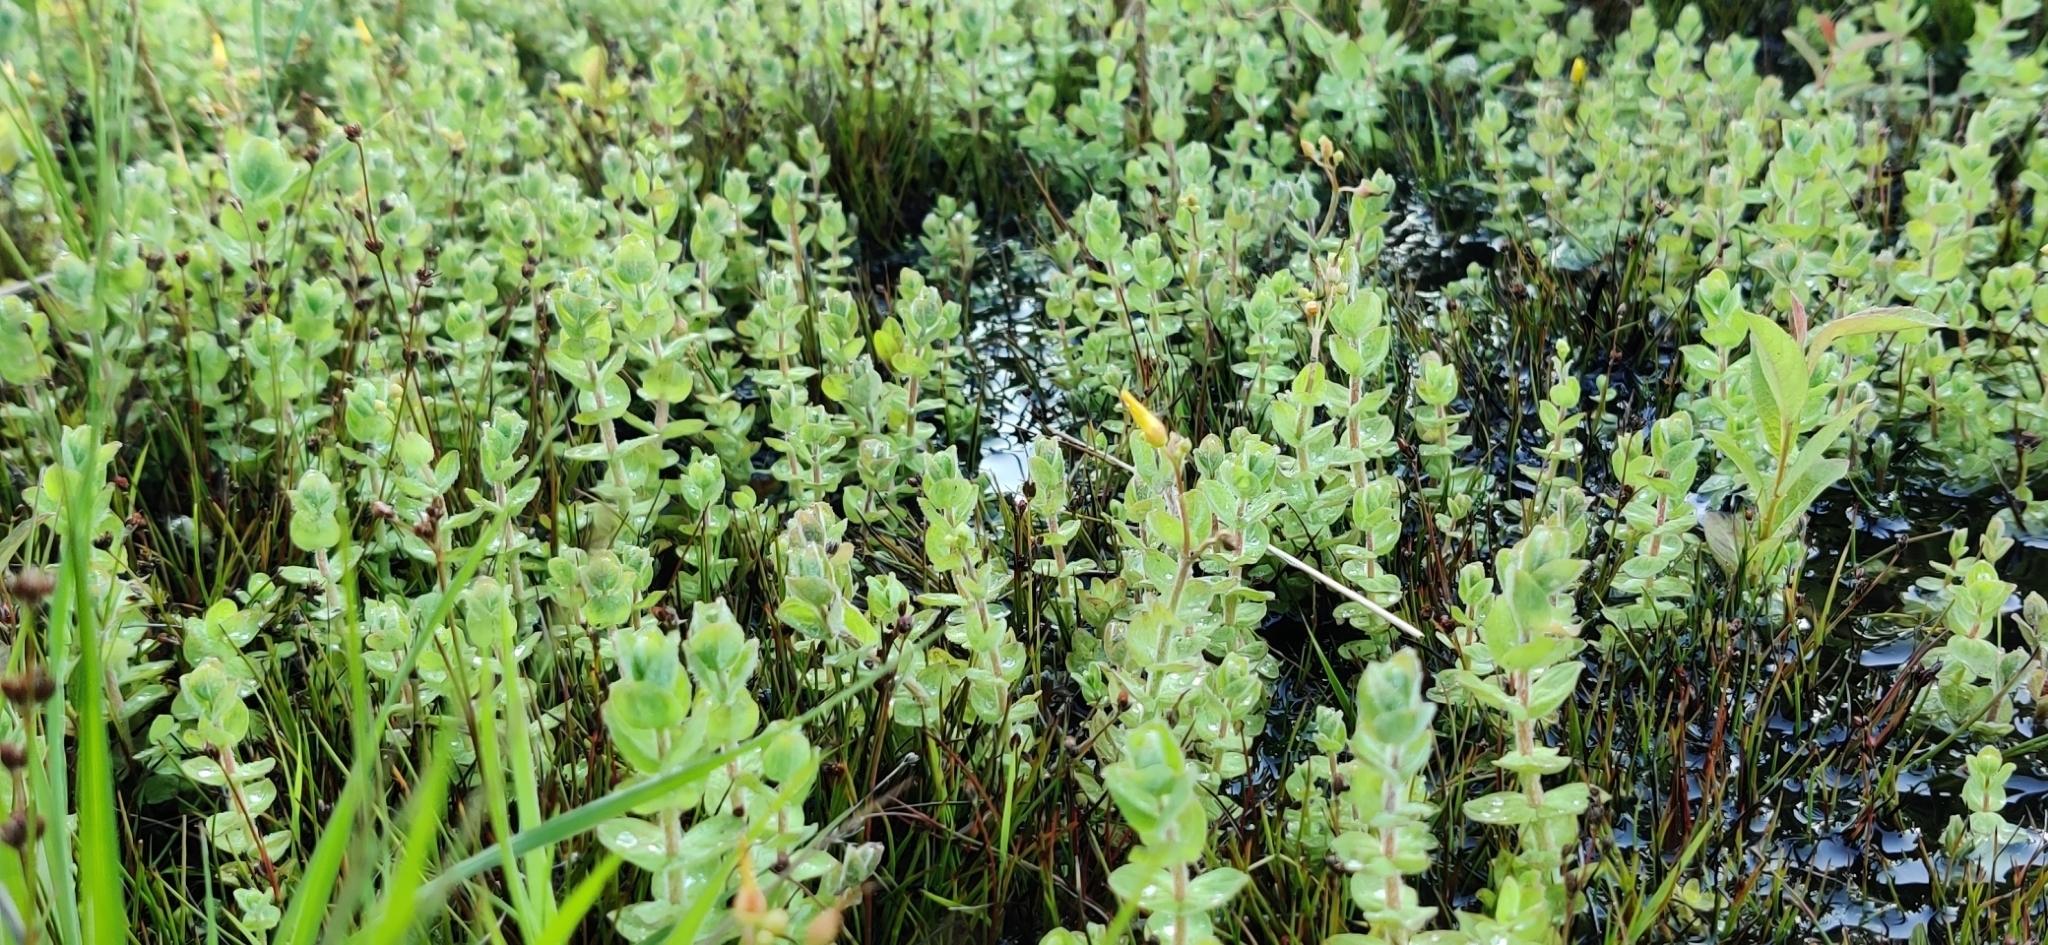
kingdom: Plantae
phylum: Tracheophyta
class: Magnoliopsida
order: Malpighiales
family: Hypericaceae
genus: Hypericum
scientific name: Hypericum elodes
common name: Marsh st. john's-wort
